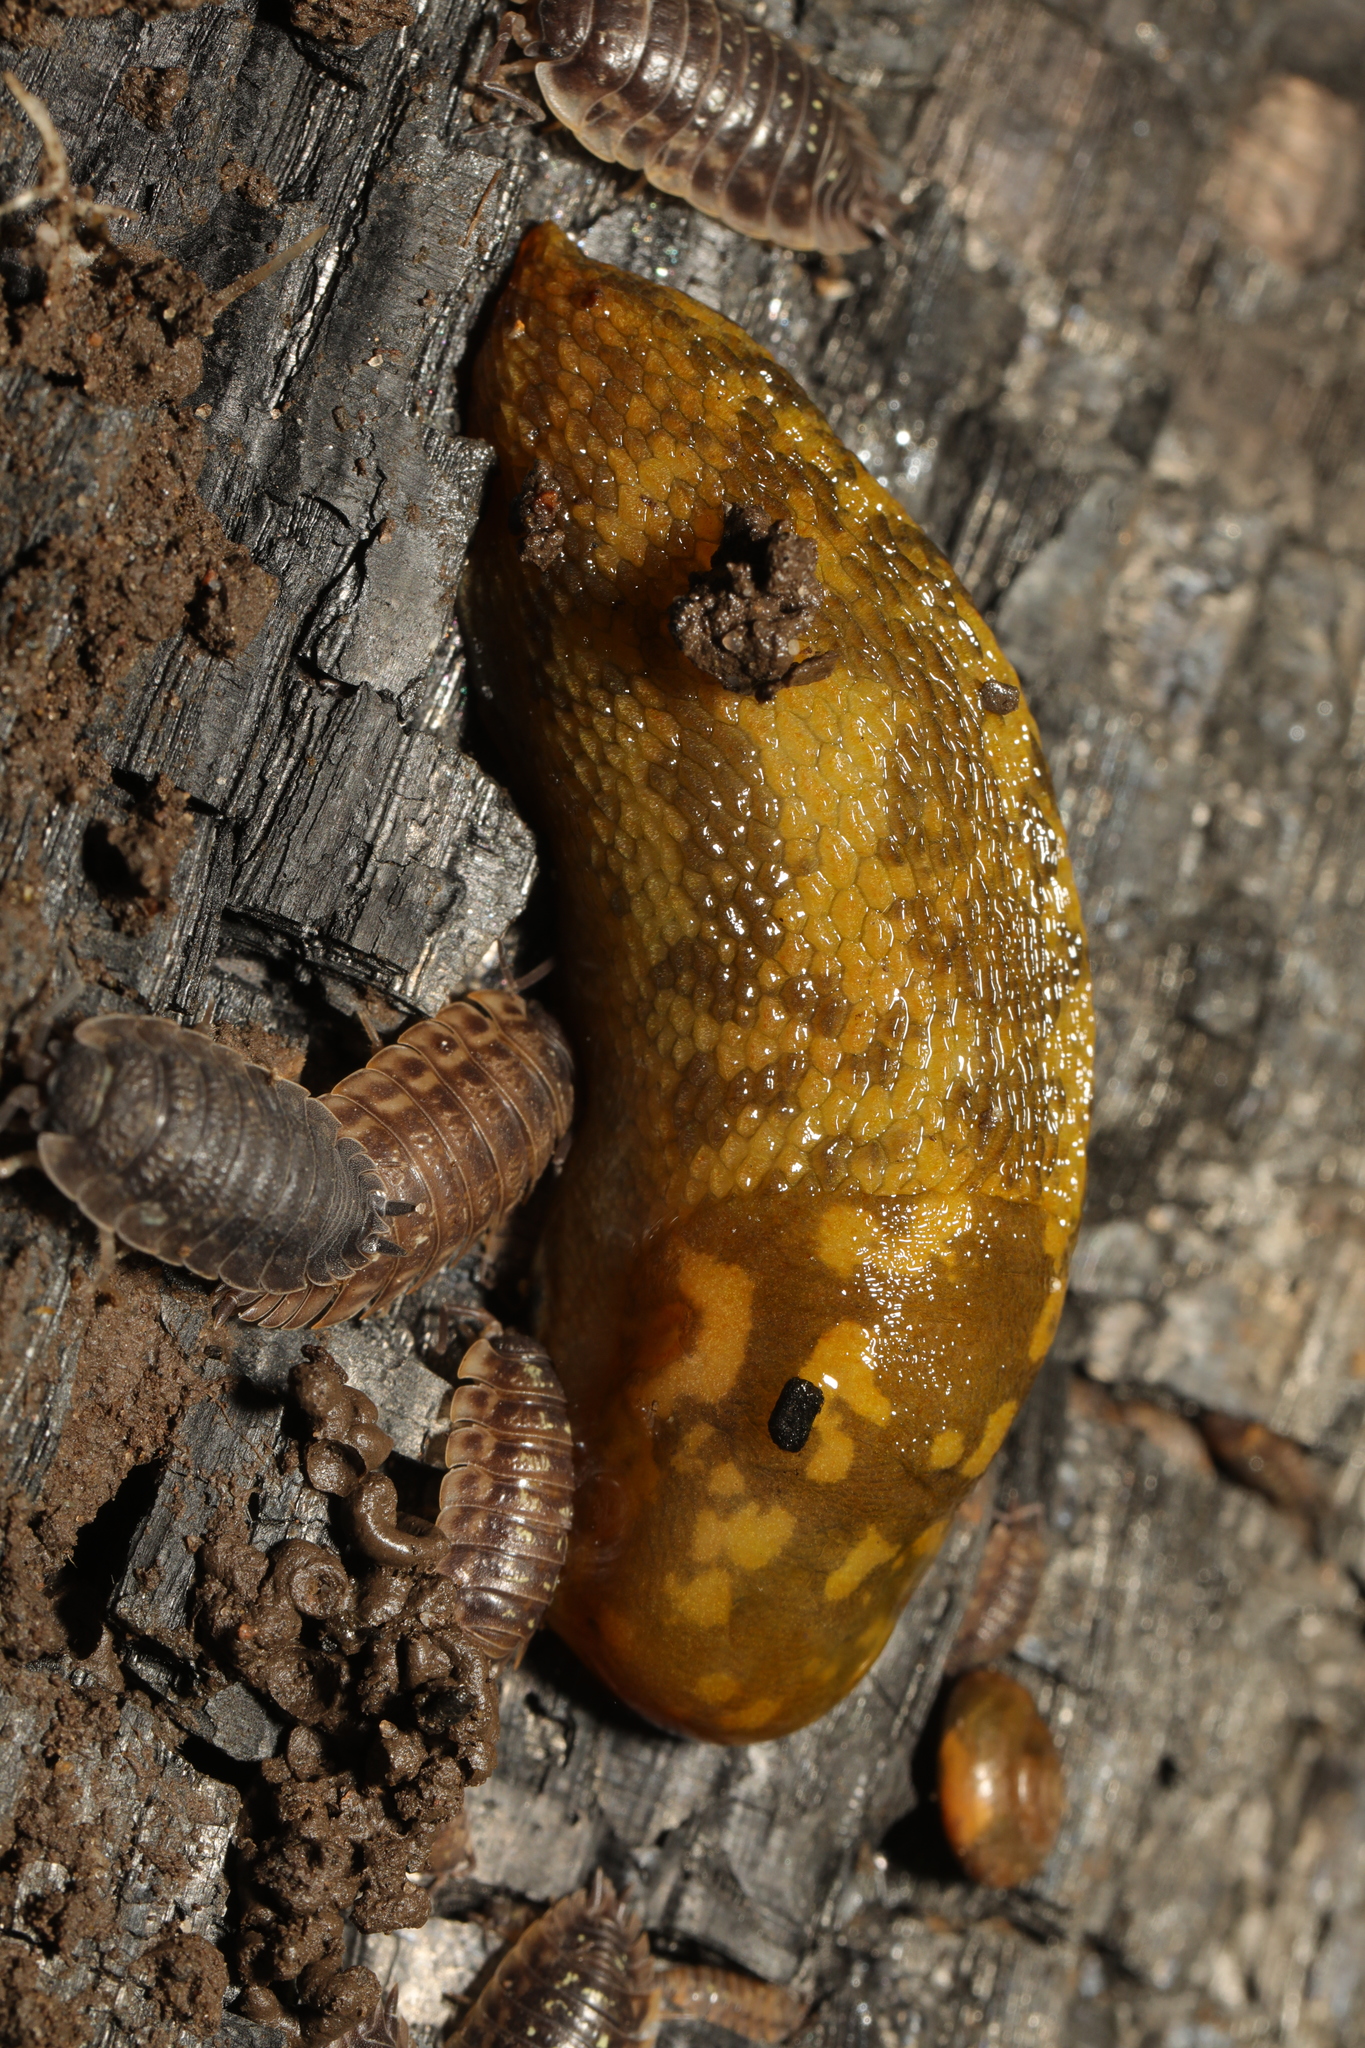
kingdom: Animalia
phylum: Mollusca
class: Gastropoda
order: Stylommatophora
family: Limacidae
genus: Limacus
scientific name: Limacus maculatus
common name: Irish yellow slug
